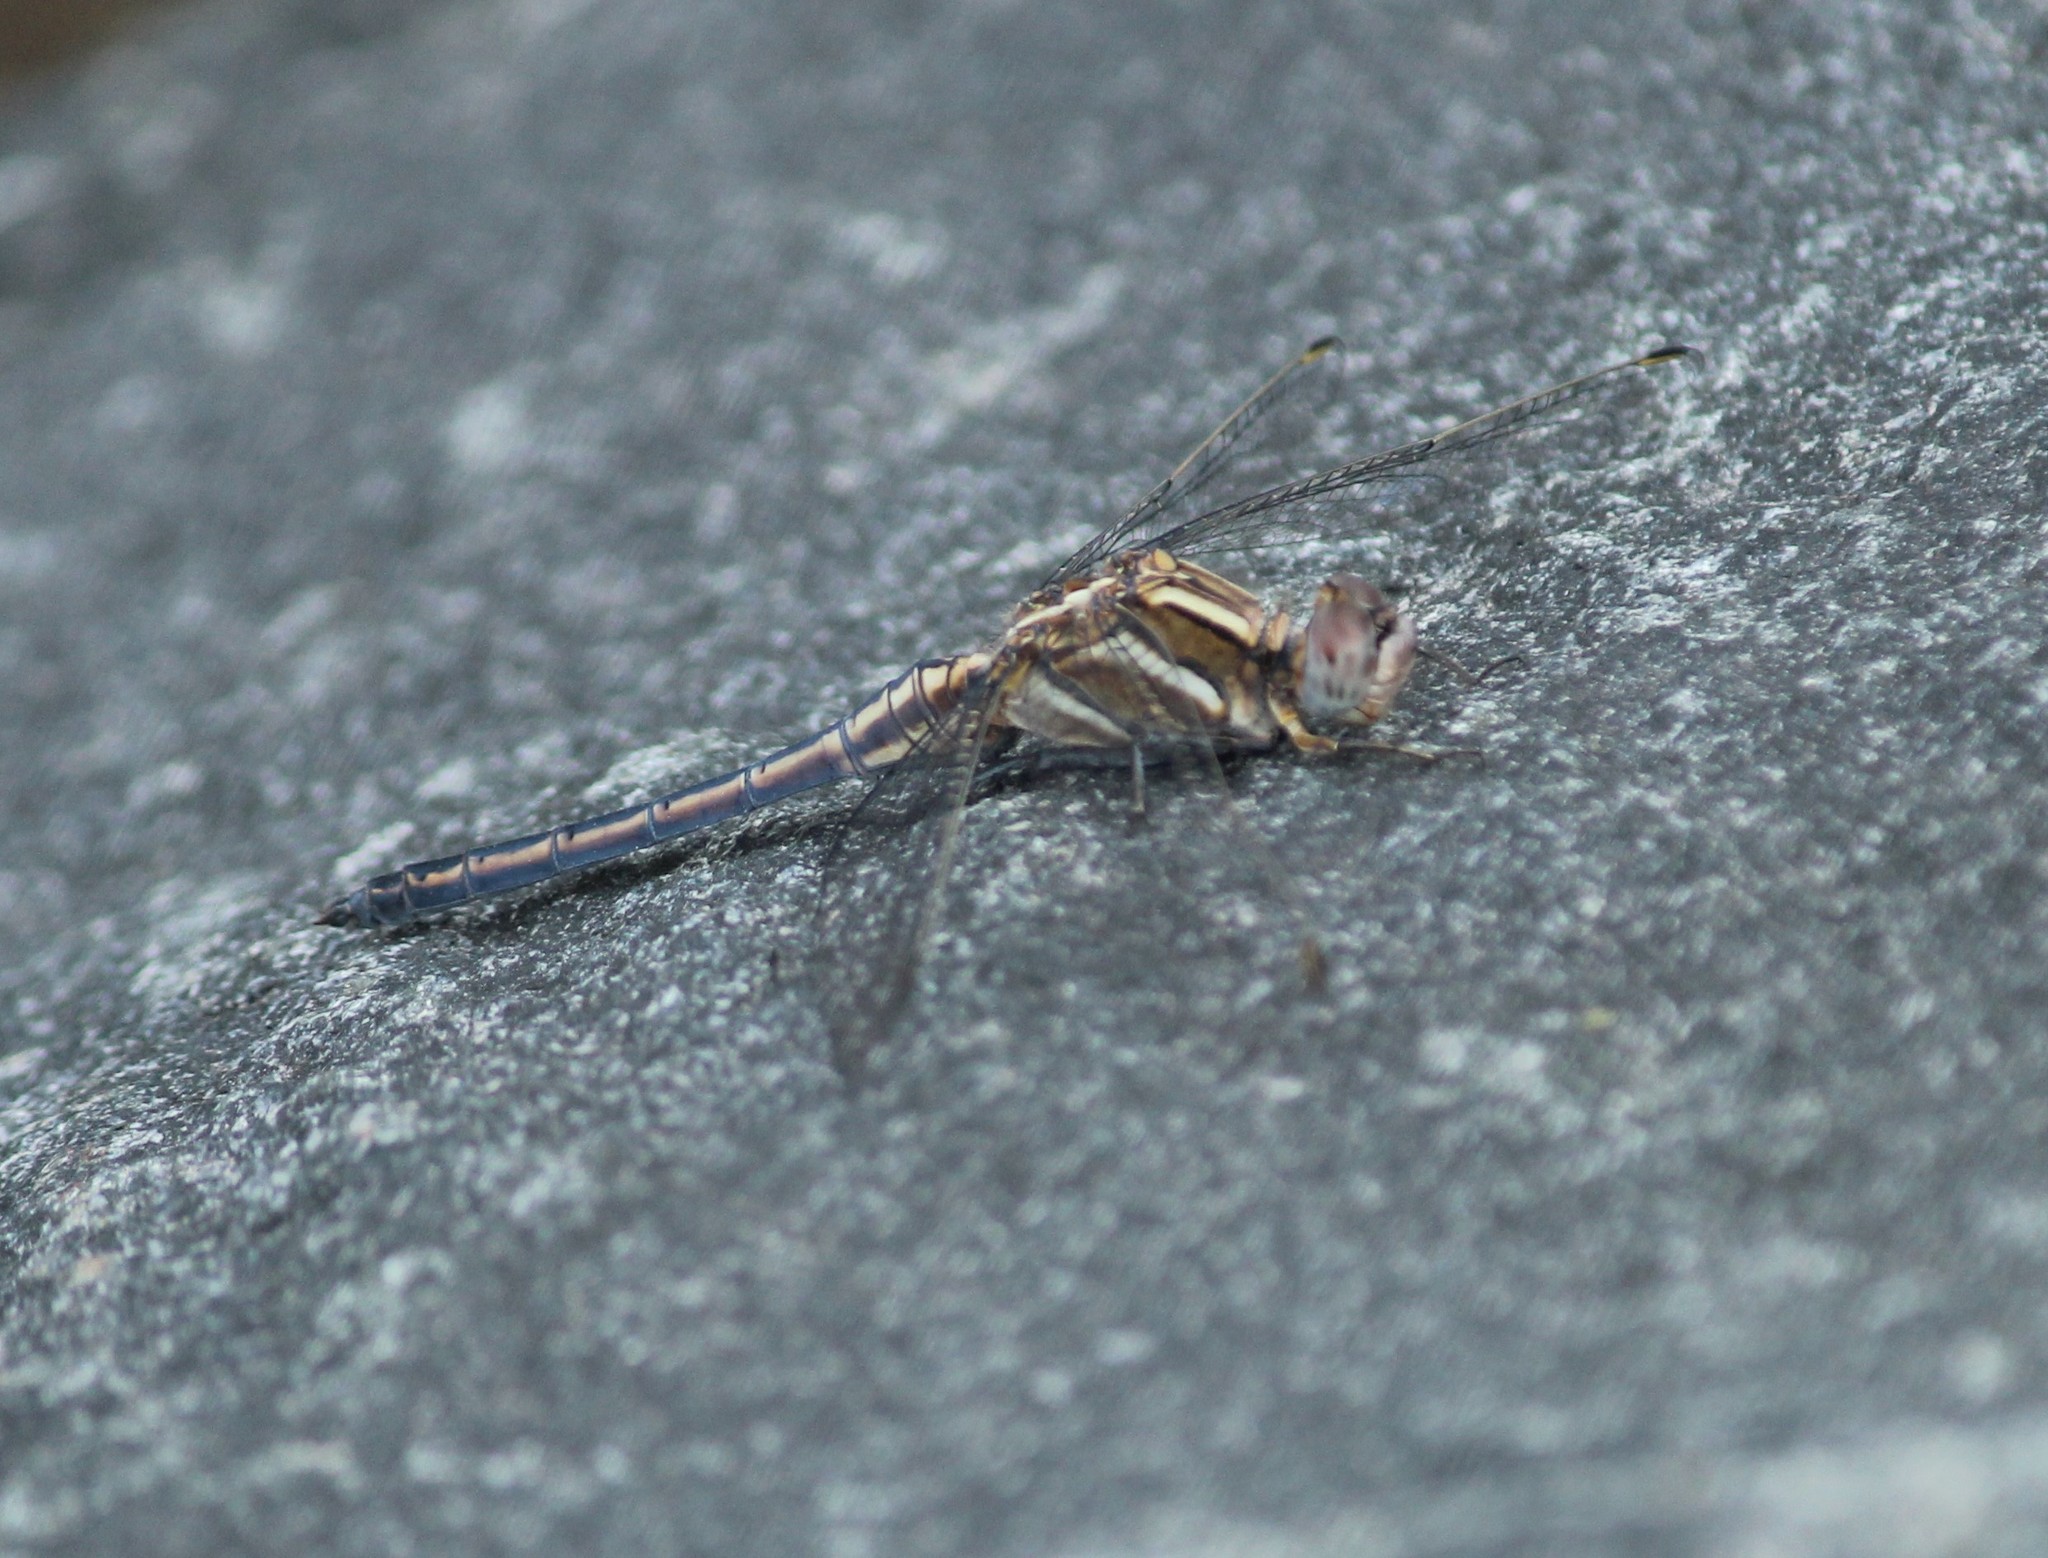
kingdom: Animalia
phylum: Arthropoda
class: Insecta
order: Odonata
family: Libellulidae
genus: Orthetrum
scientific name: Orthetrum taeniolatum
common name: Small skimmer
